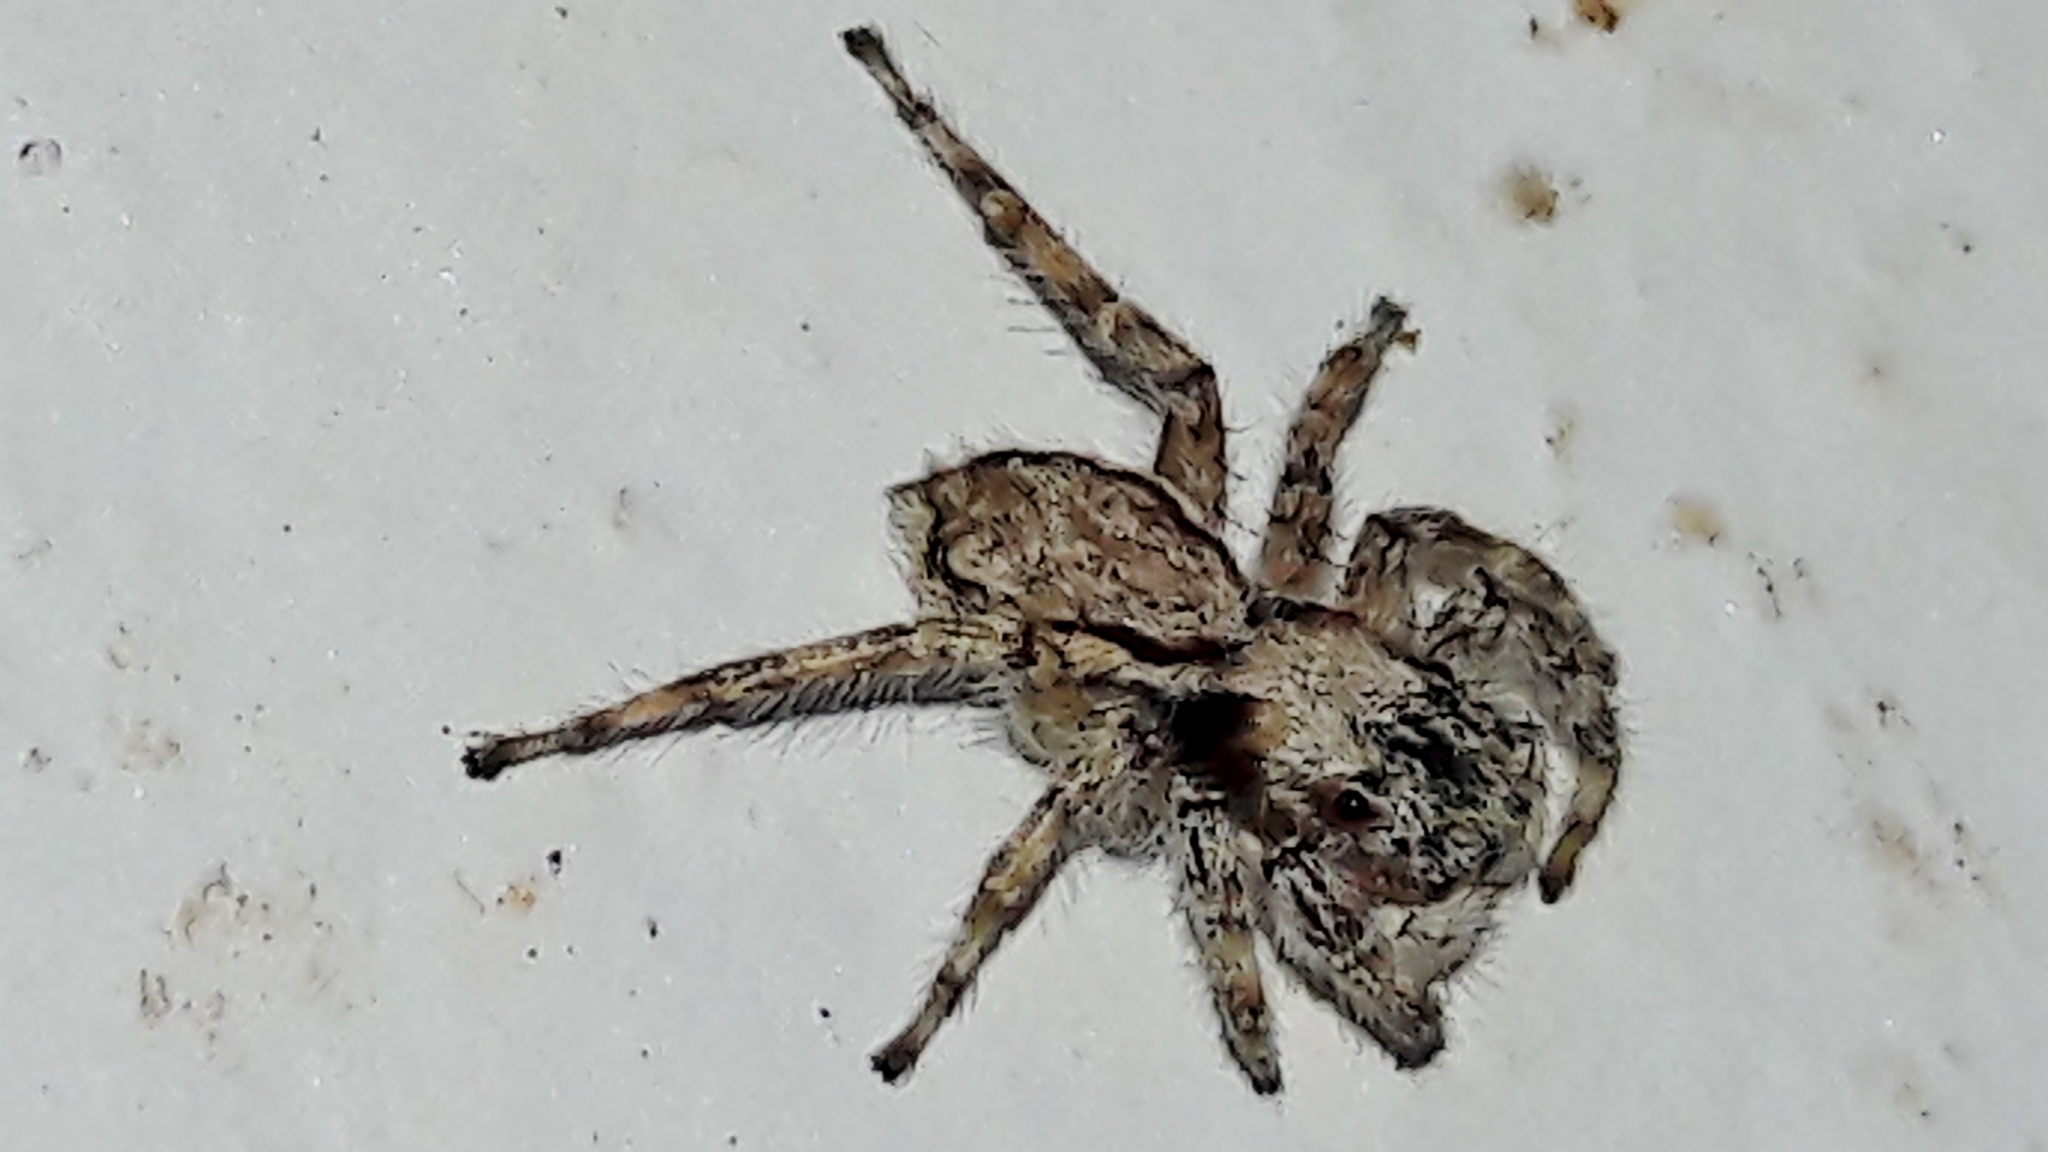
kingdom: Animalia
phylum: Arthropoda
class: Arachnida
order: Araneae
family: Salticidae
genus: Menemerus
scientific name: Menemerus bivittatus
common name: Gray wall jumper
